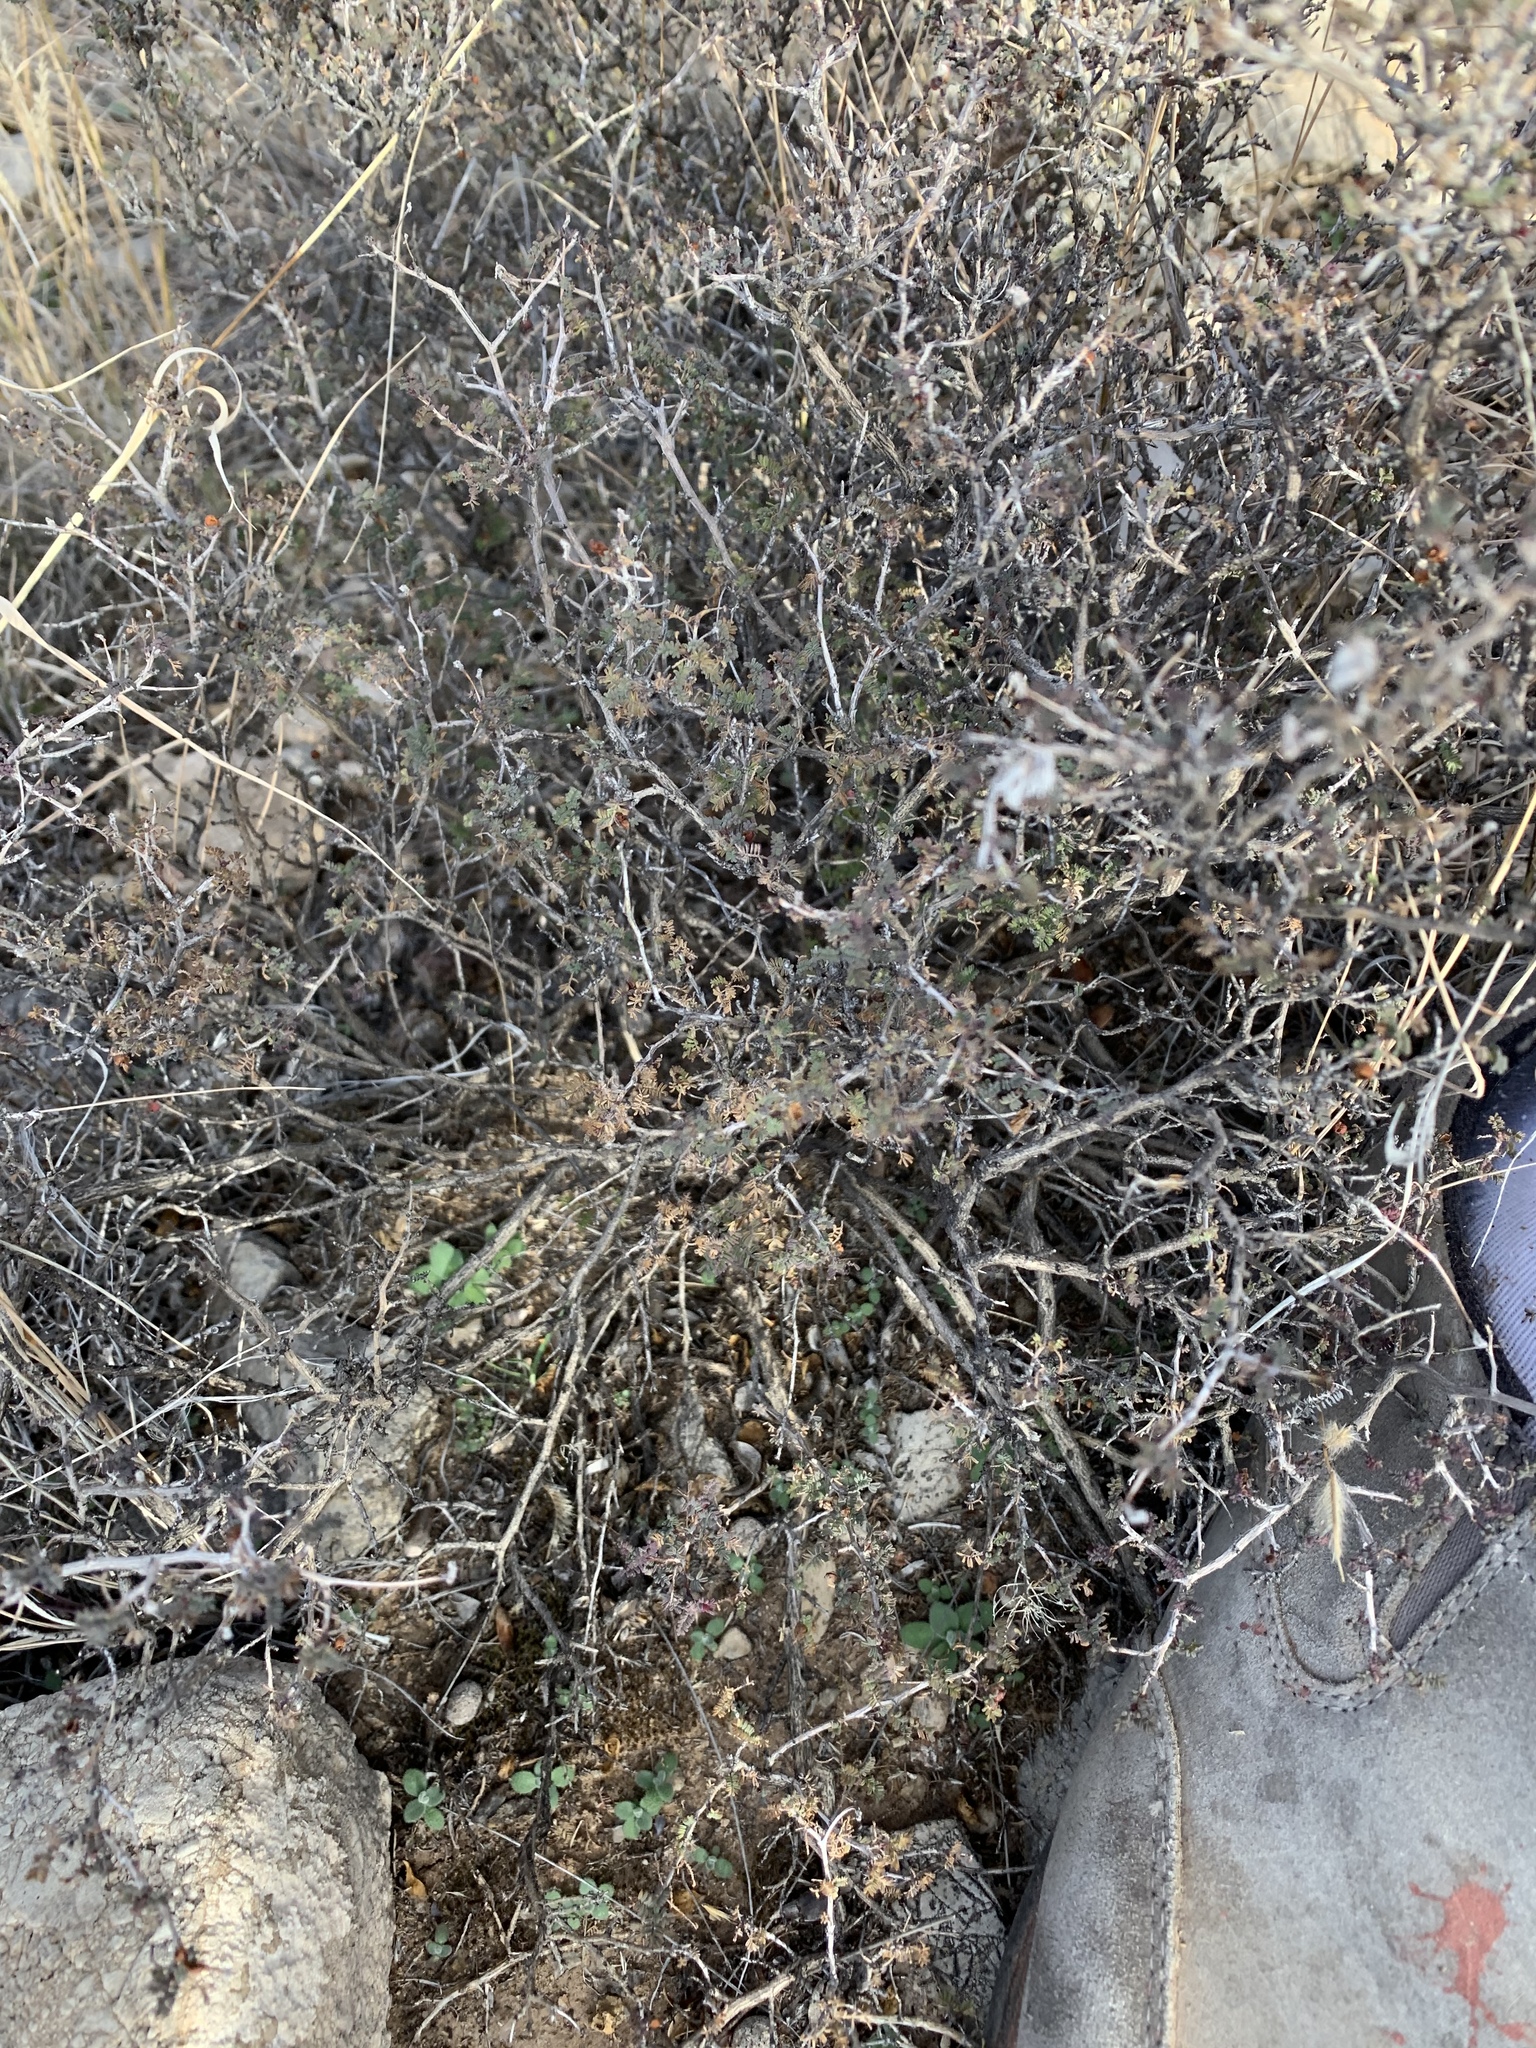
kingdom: Plantae
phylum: Tracheophyta
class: Magnoliopsida
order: Fabales
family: Fabaceae
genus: Dalea
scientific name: Dalea formosa
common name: Feather-plume dalea
